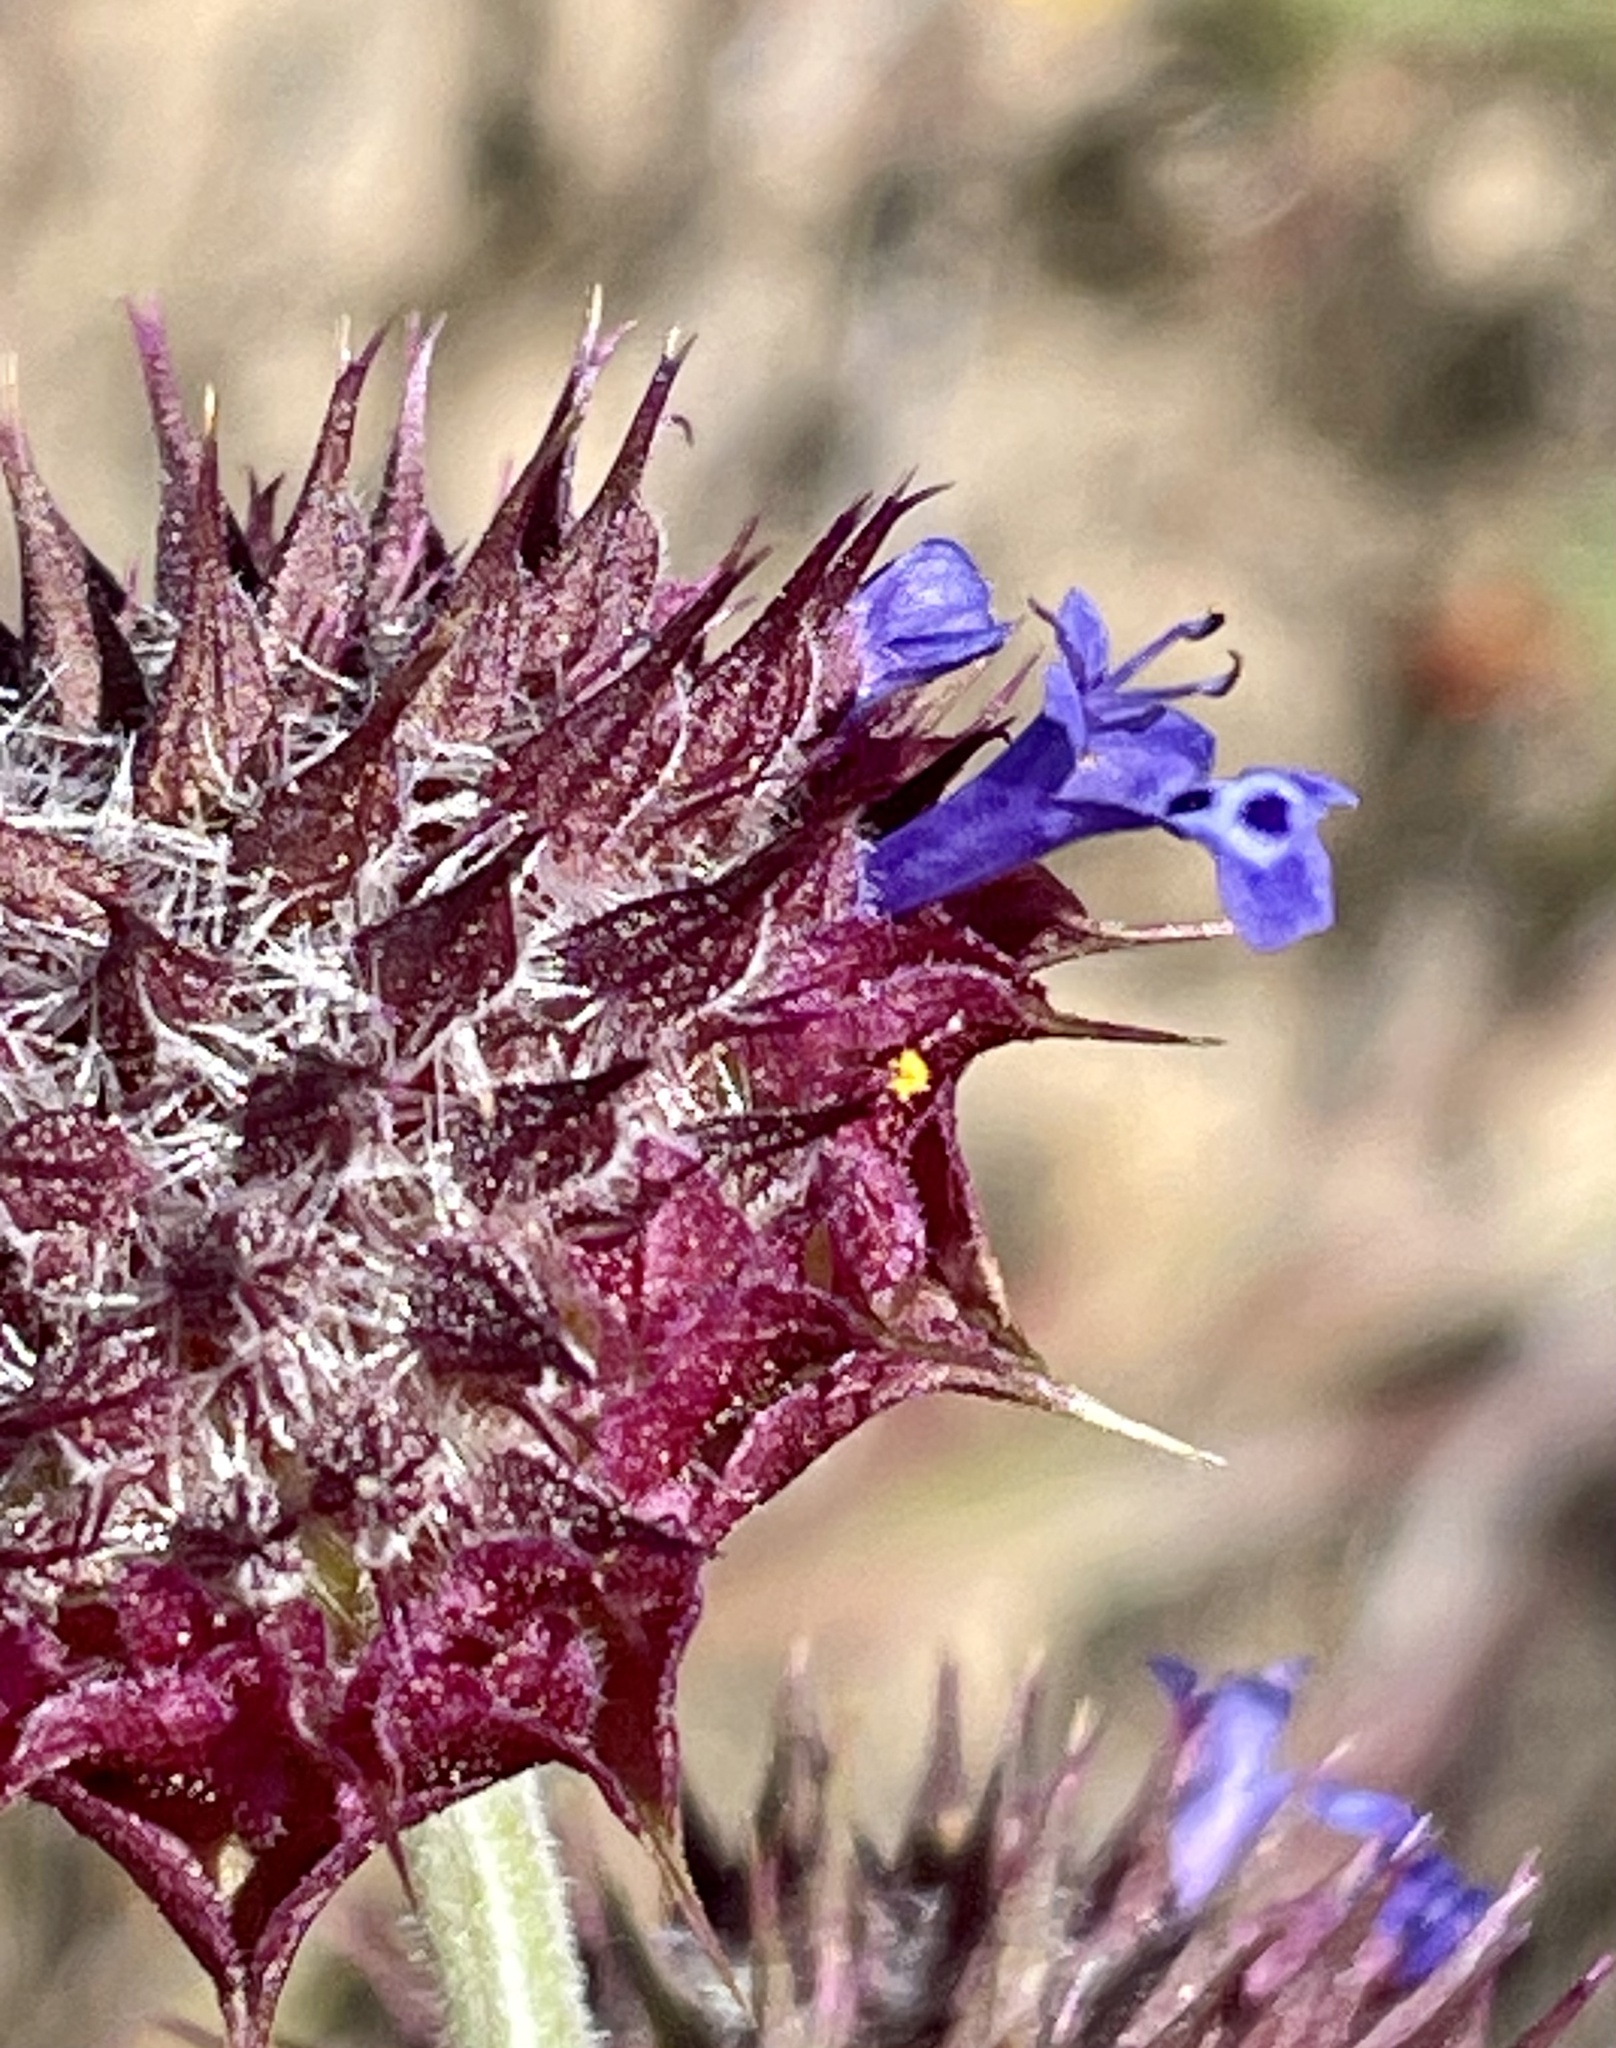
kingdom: Plantae
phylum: Tracheophyta
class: Magnoliopsida
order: Lamiales
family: Lamiaceae
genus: Salvia
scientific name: Salvia columbariae
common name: Chia
